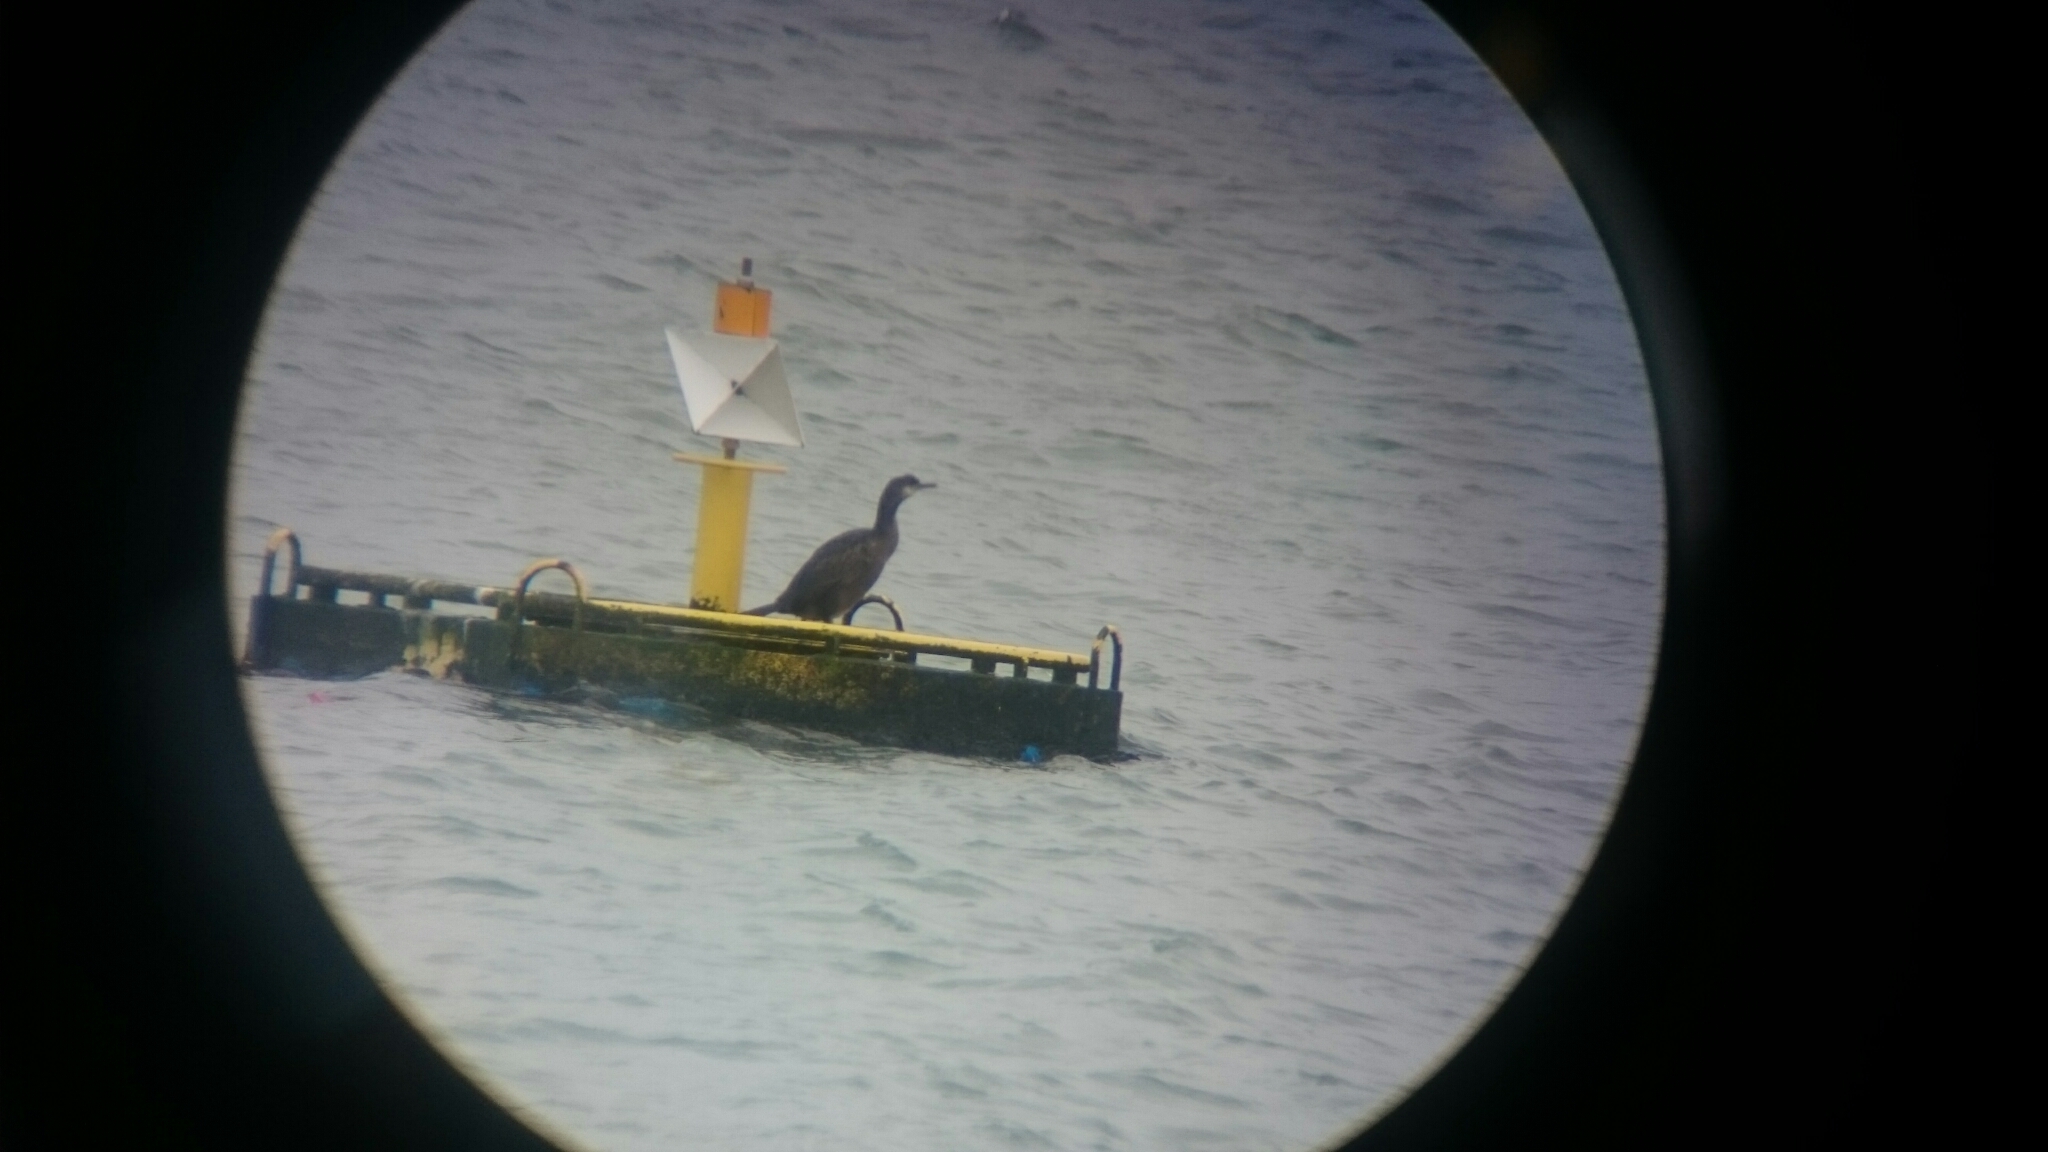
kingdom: Animalia
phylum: Chordata
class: Aves
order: Suliformes
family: Phalacrocoracidae
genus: Phalacrocorax
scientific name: Phalacrocorax aristotelis
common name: European shag
